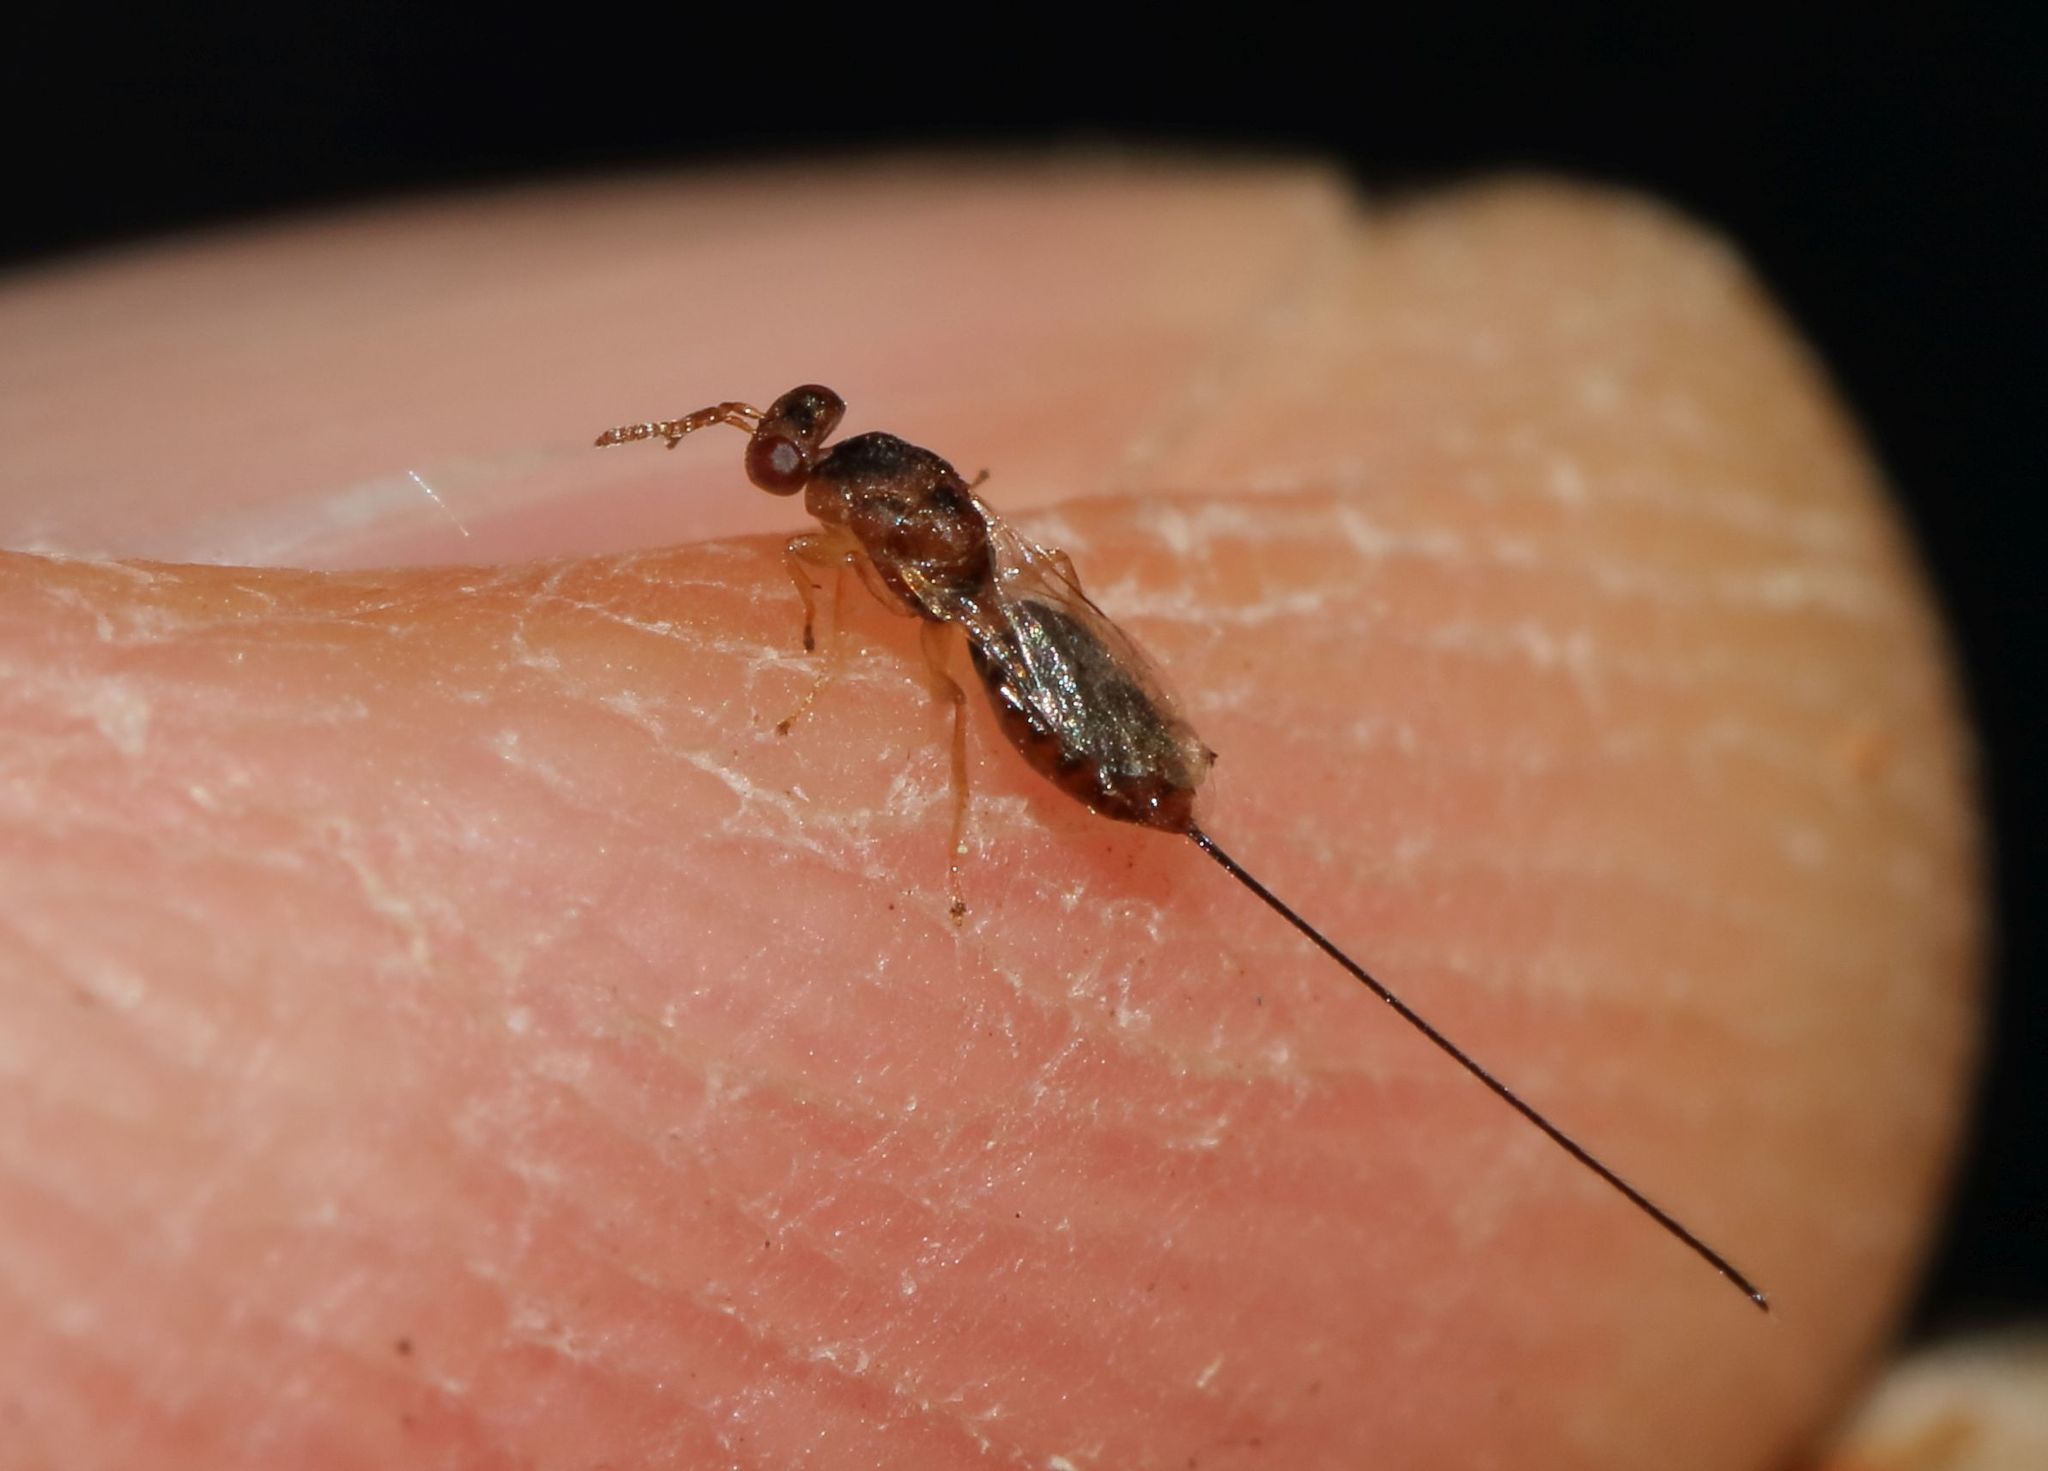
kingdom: Animalia
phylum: Arthropoda
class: Insecta
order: Hymenoptera
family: Agaonidae
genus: Sycophaga
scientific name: Sycophaga
